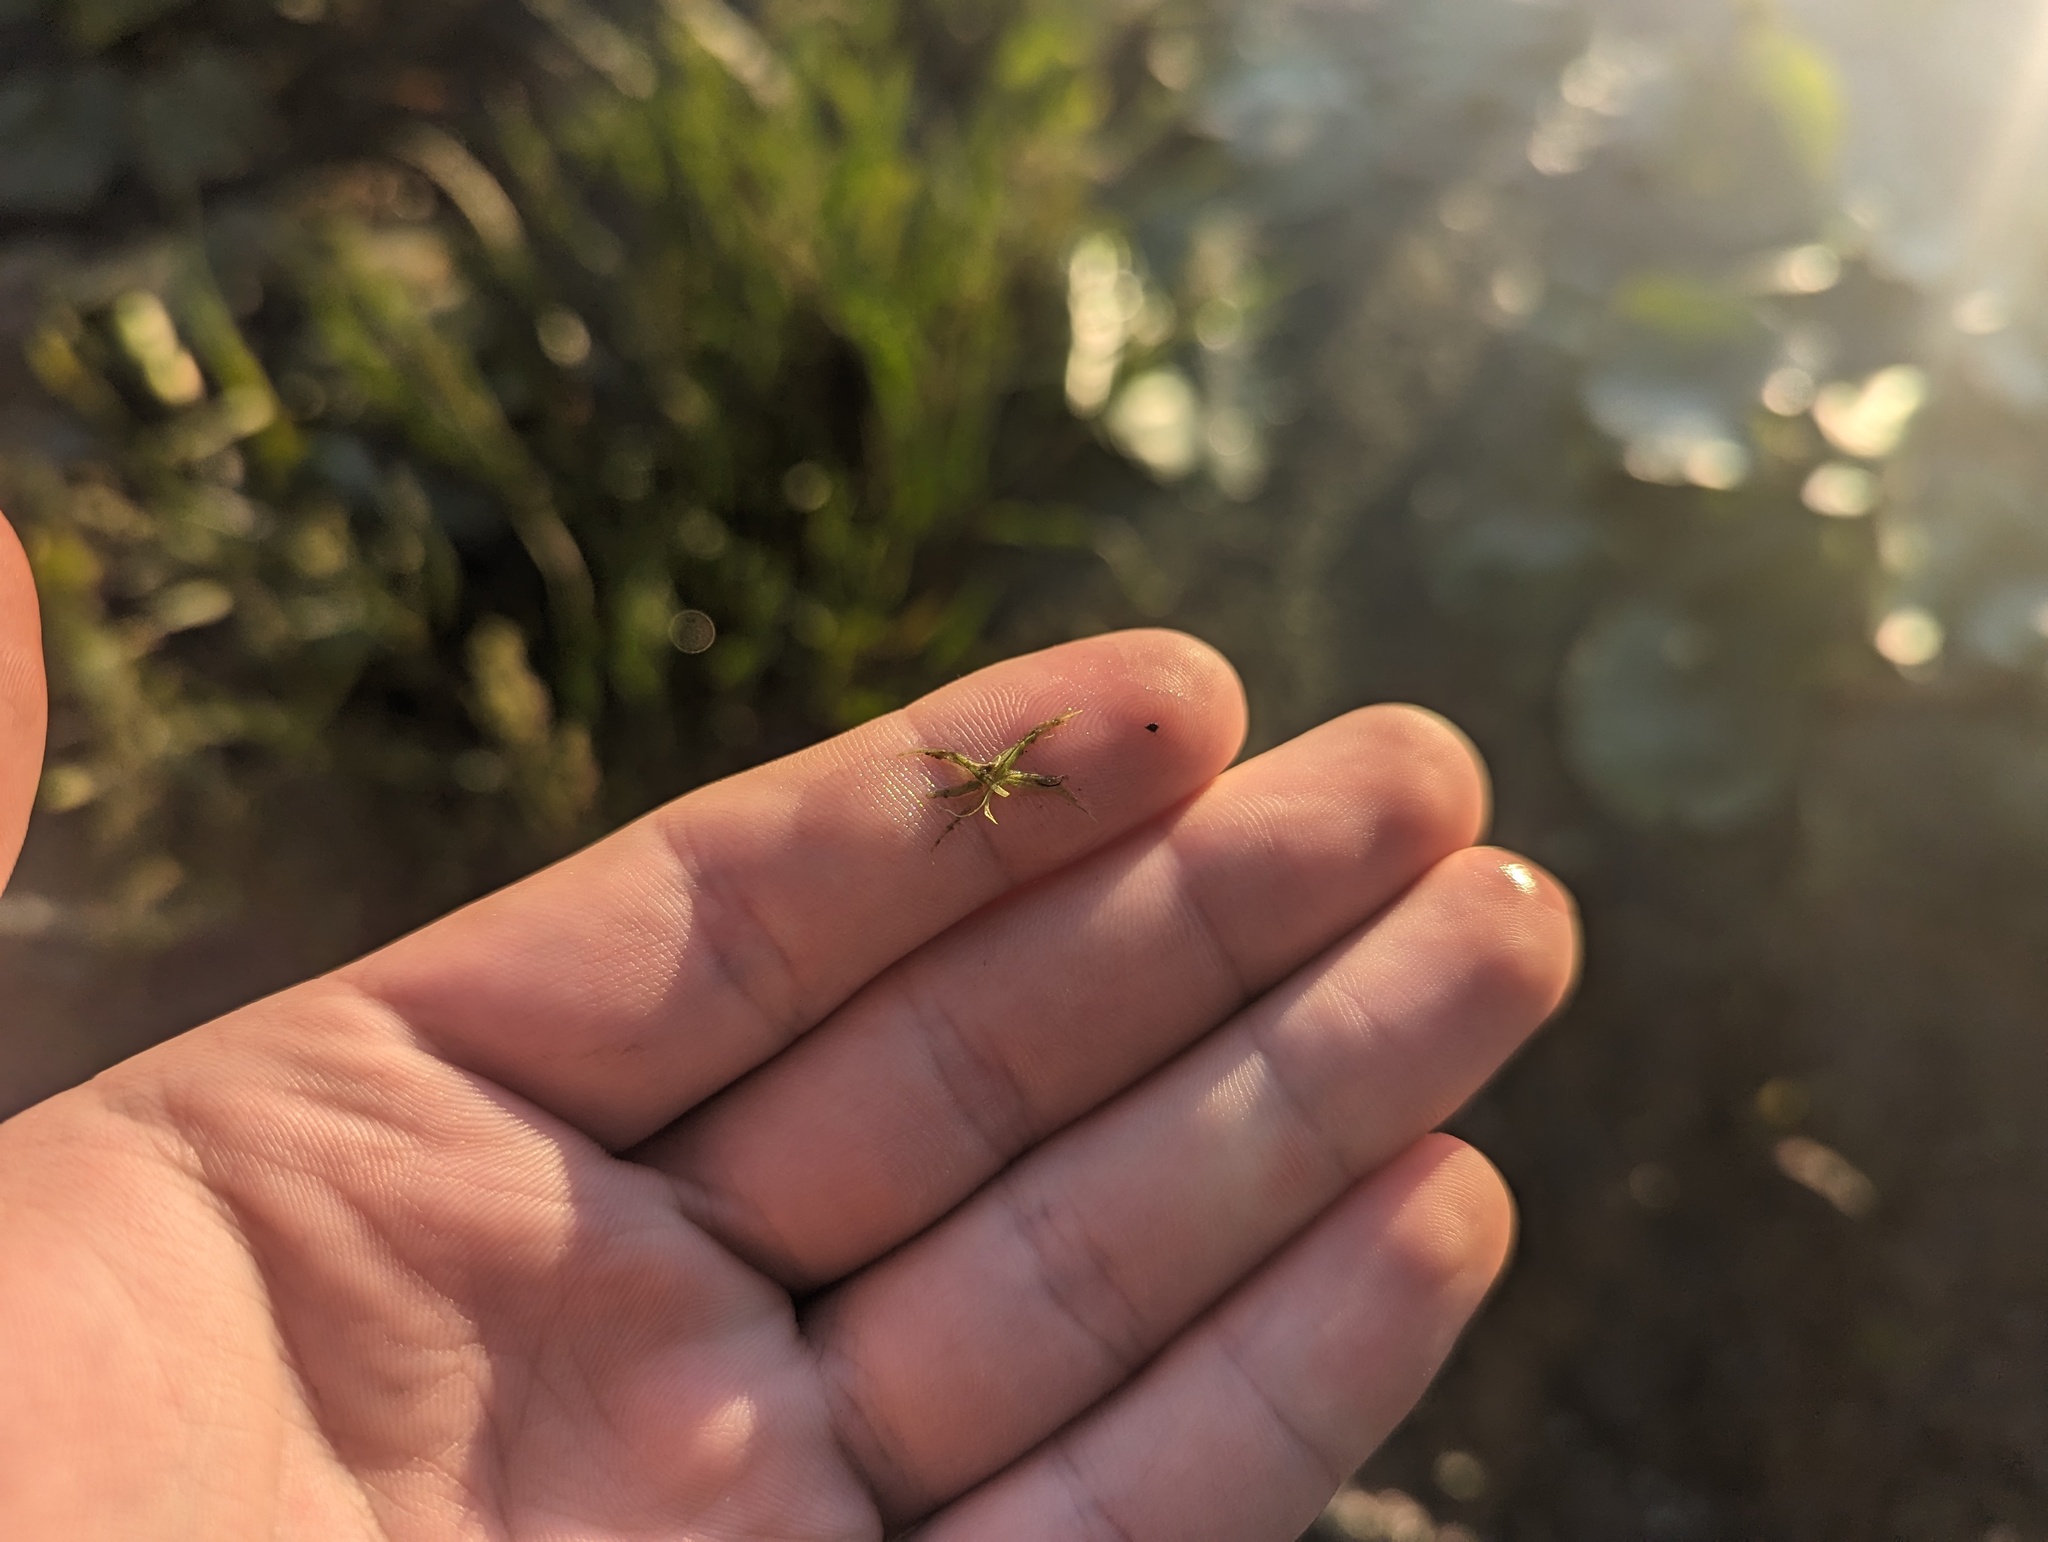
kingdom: Plantae
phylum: Tracheophyta
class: Liliopsida
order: Alismatales
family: Araceae
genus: Wolffiella
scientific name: Wolffiella gladiata
